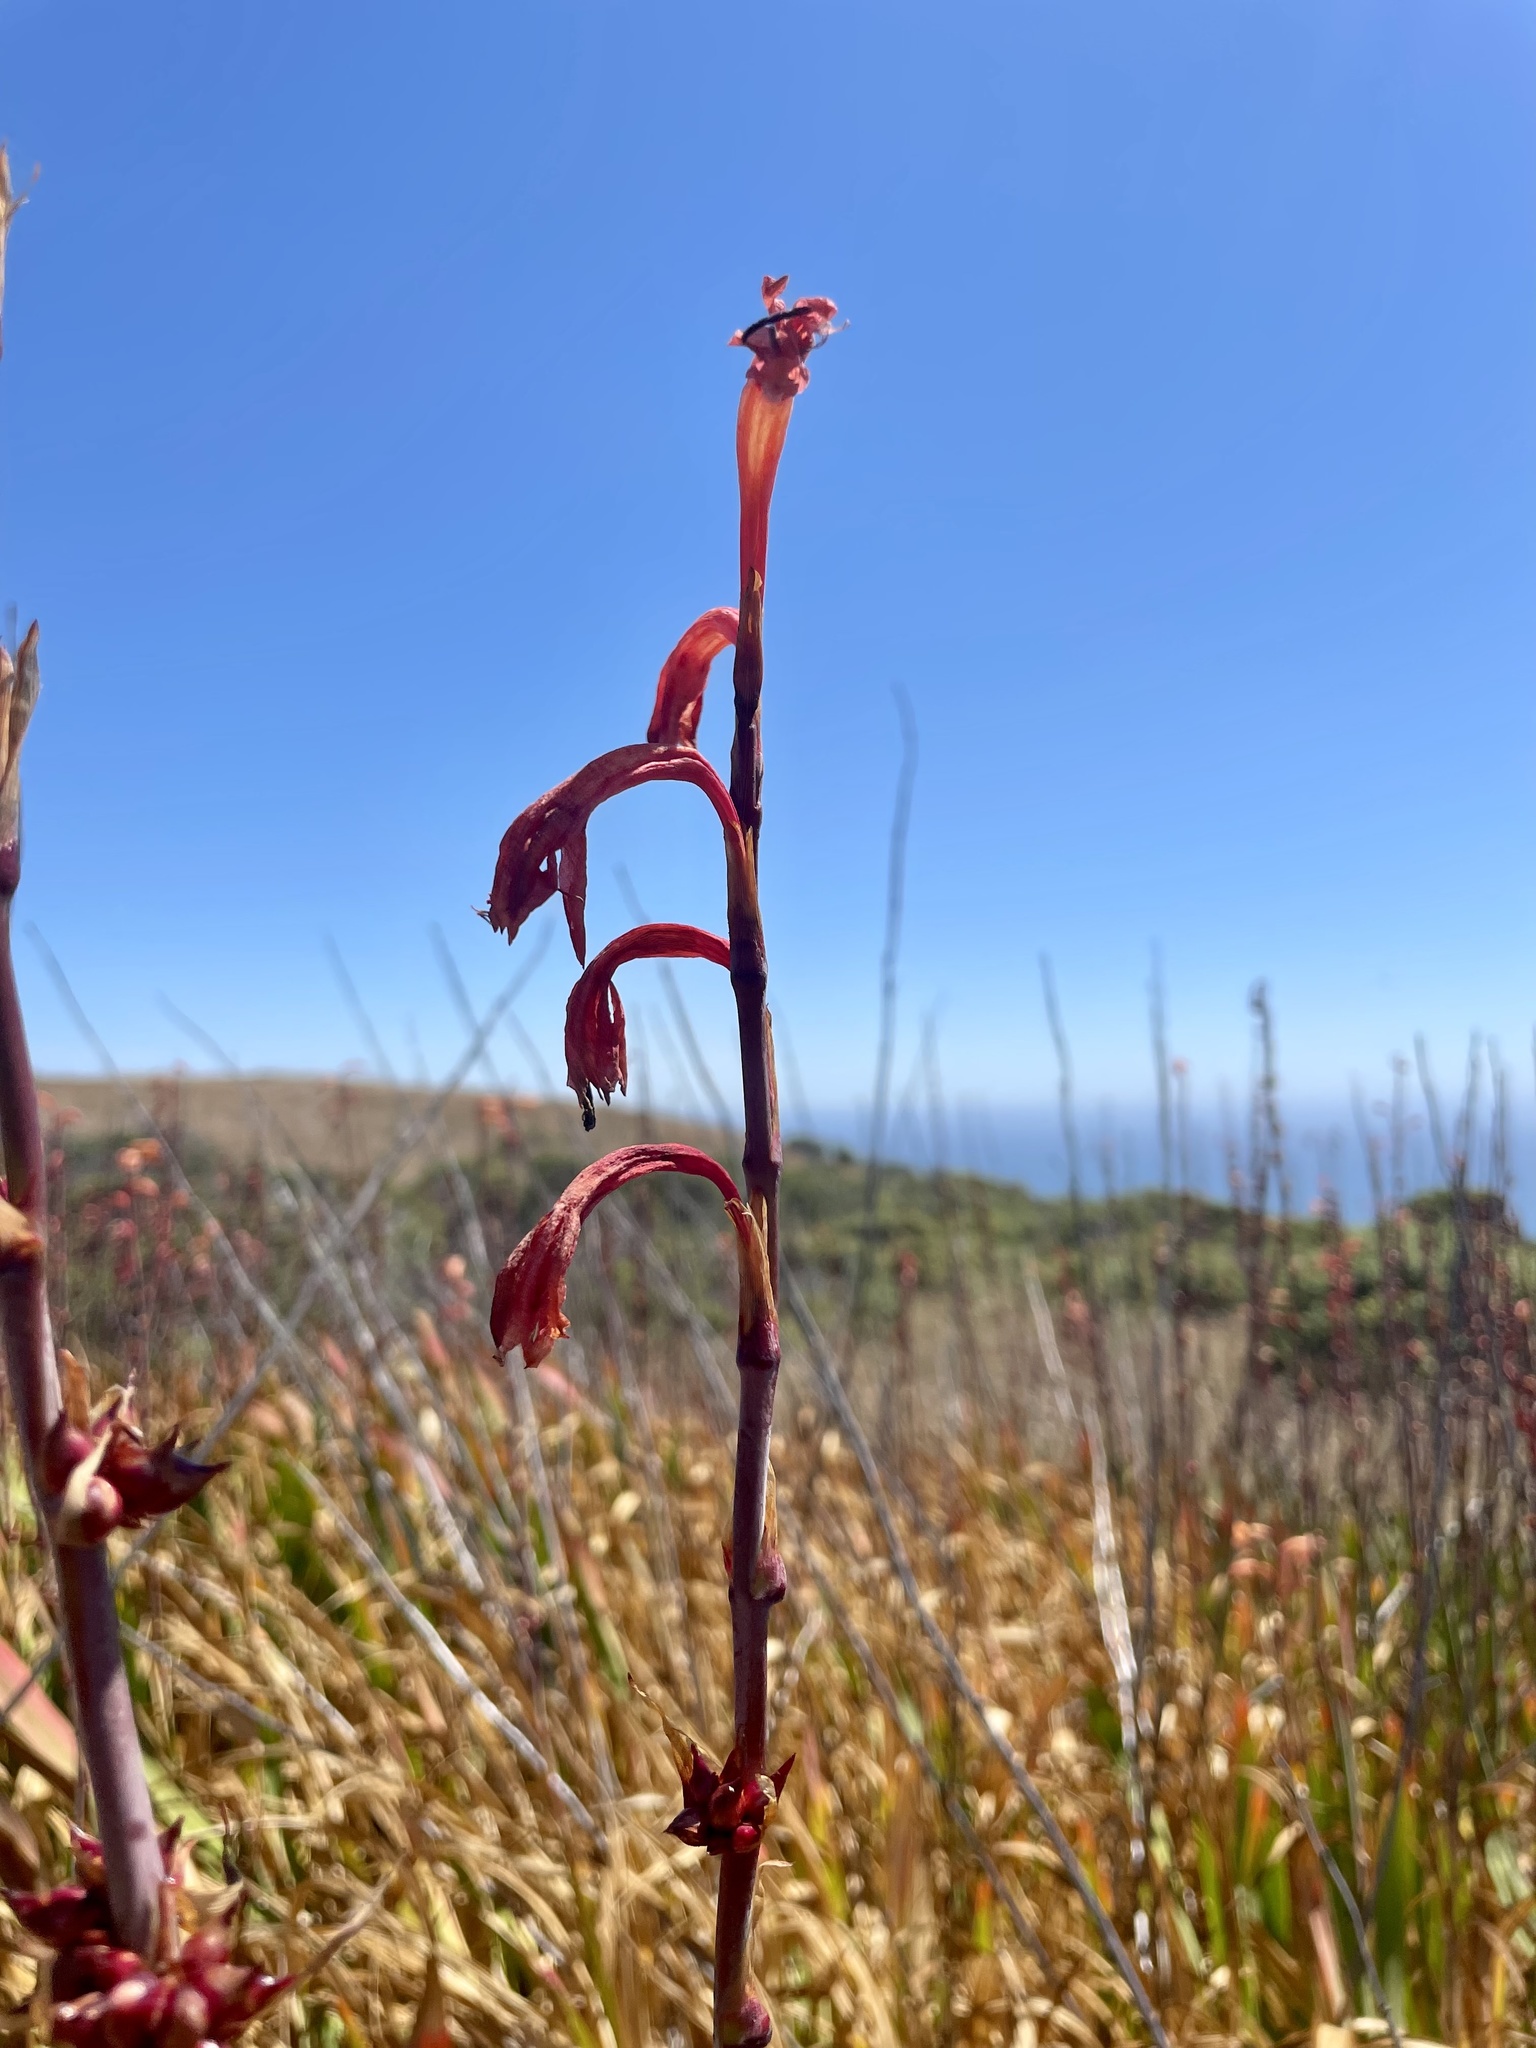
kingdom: Plantae
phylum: Tracheophyta
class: Liliopsida
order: Asparagales
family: Iridaceae
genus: Watsonia
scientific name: Watsonia meriana
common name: Bulbil bugle-lily
